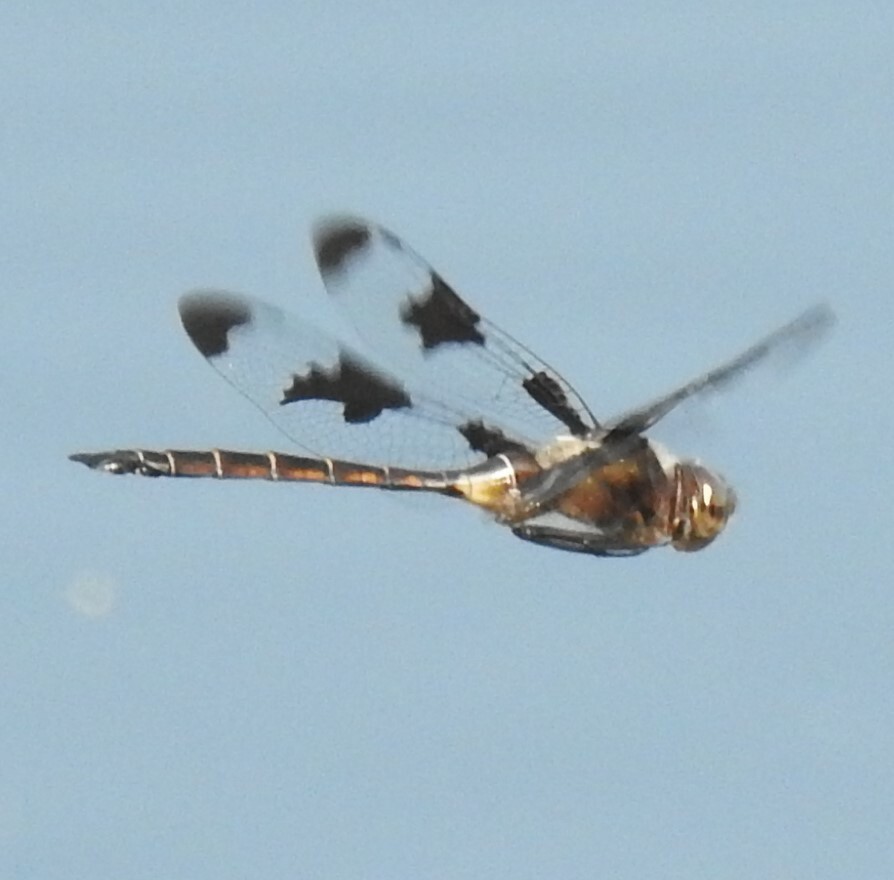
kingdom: Animalia
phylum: Arthropoda
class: Insecta
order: Odonata
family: Corduliidae
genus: Epitheca
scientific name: Epitheca princeps
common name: Prince baskettail
